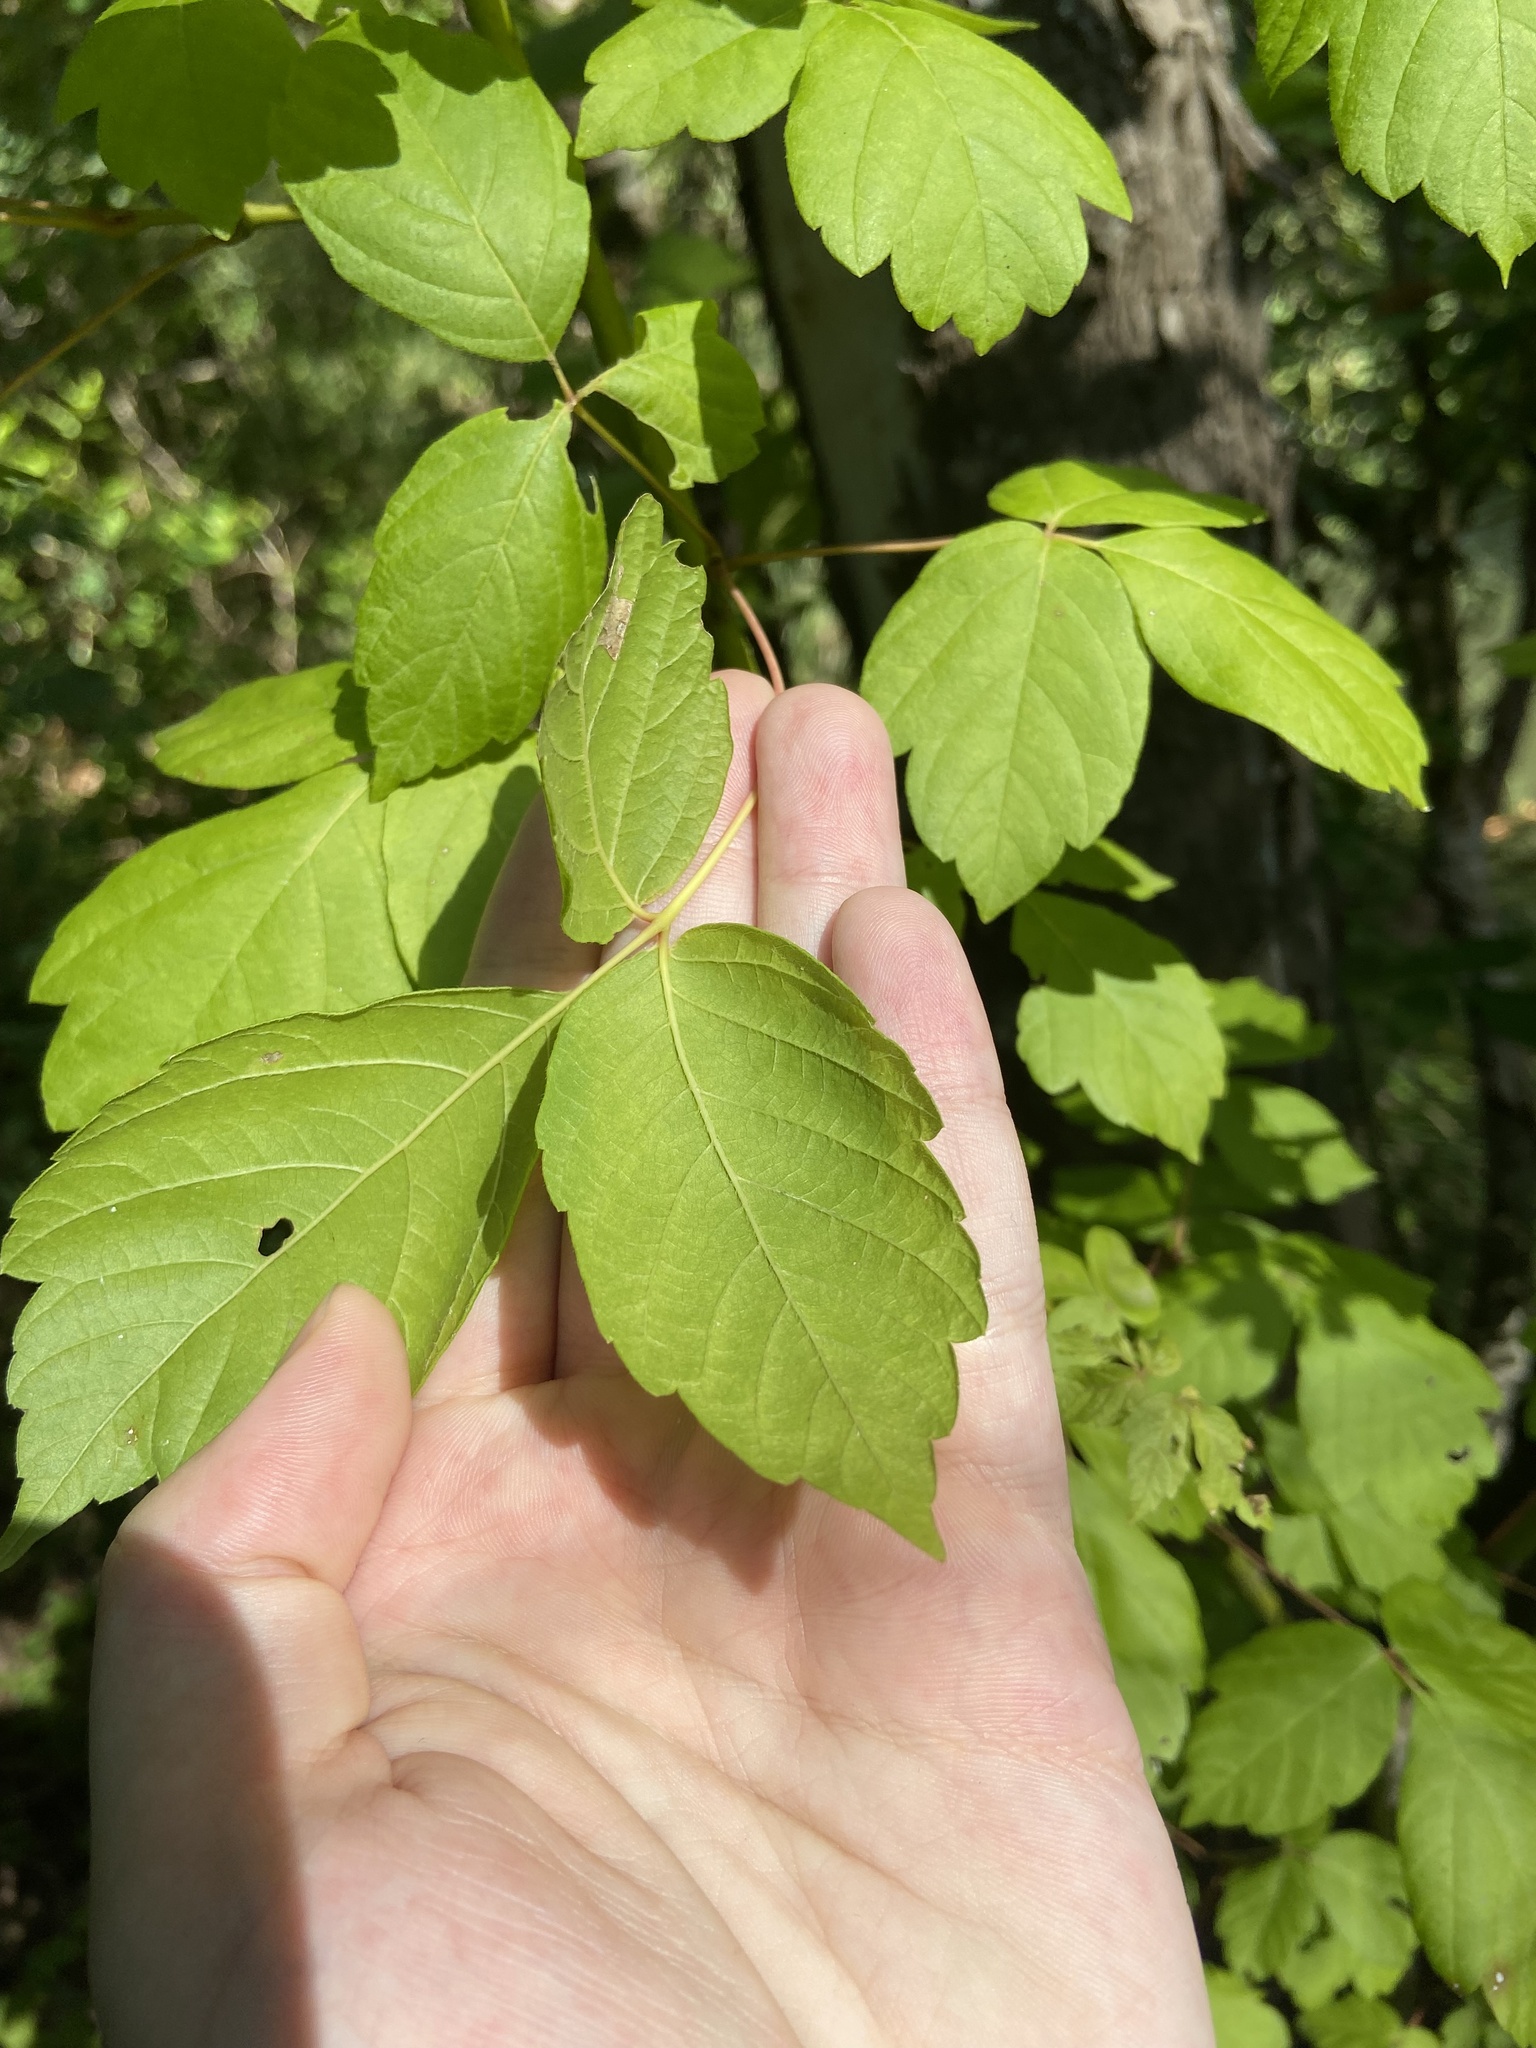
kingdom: Plantae
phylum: Tracheophyta
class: Magnoliopsida
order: Sapindales
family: Sapindaceae
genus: Acer
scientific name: Acer negundo
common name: Ashleaf maple
